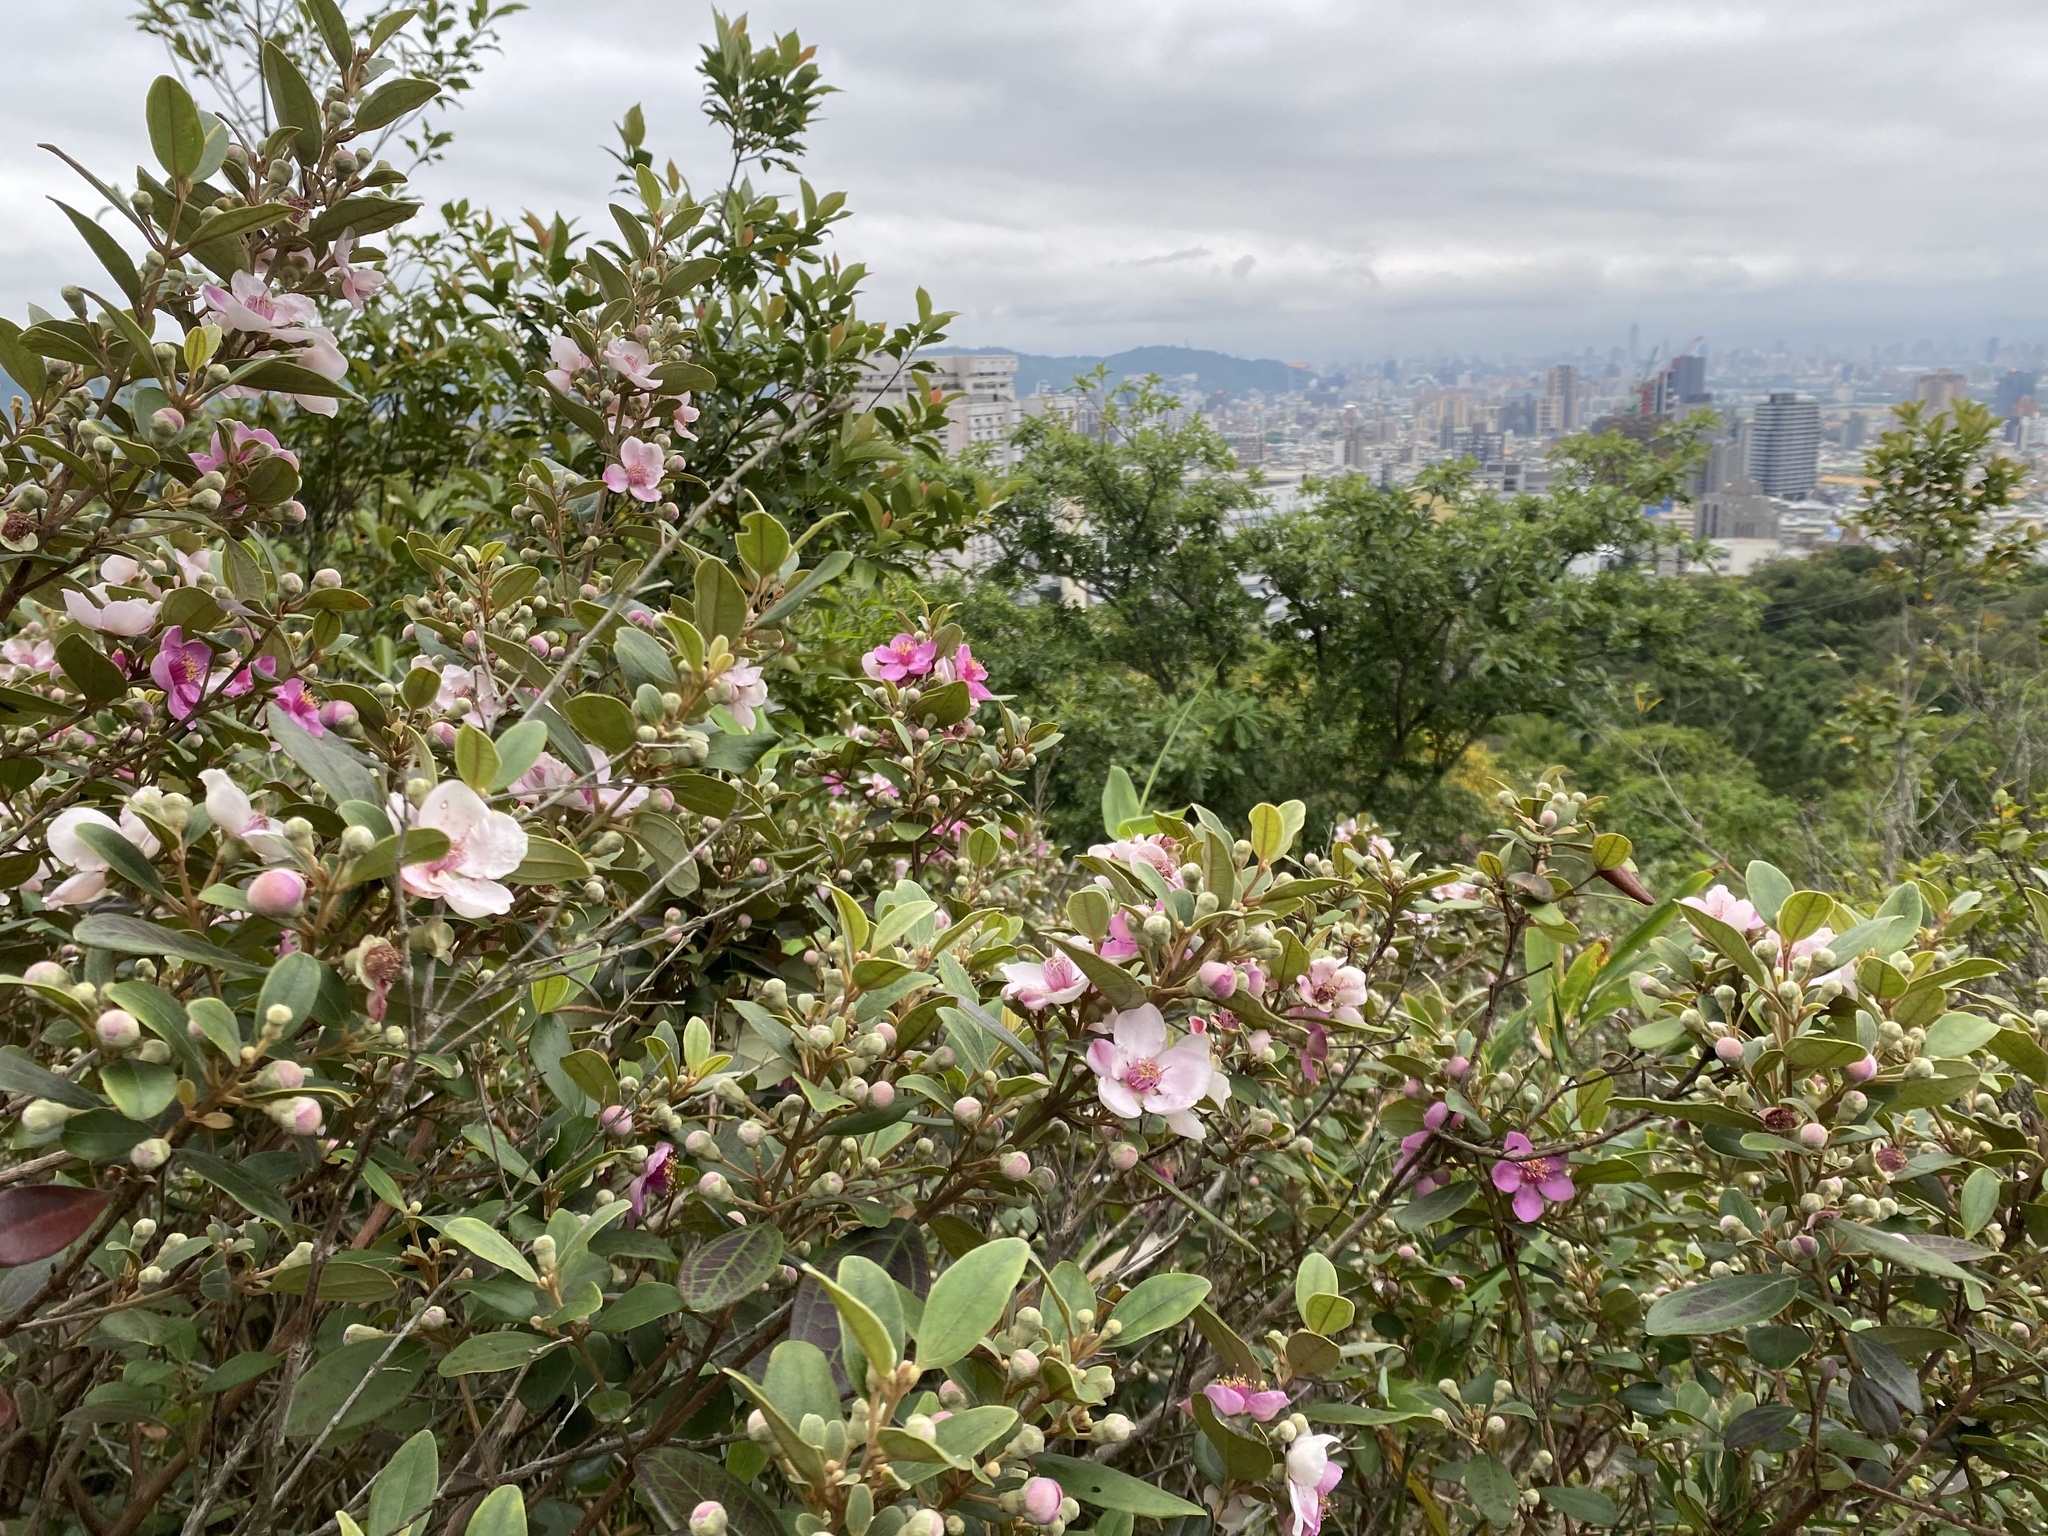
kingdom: Plantae
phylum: Tracheophyta
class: Magnoliopsida
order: Myrtales
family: Myrtaceae
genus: Rhodomyrtus
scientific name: Rhodomyrtus tomentosa
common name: Rose myrtle
